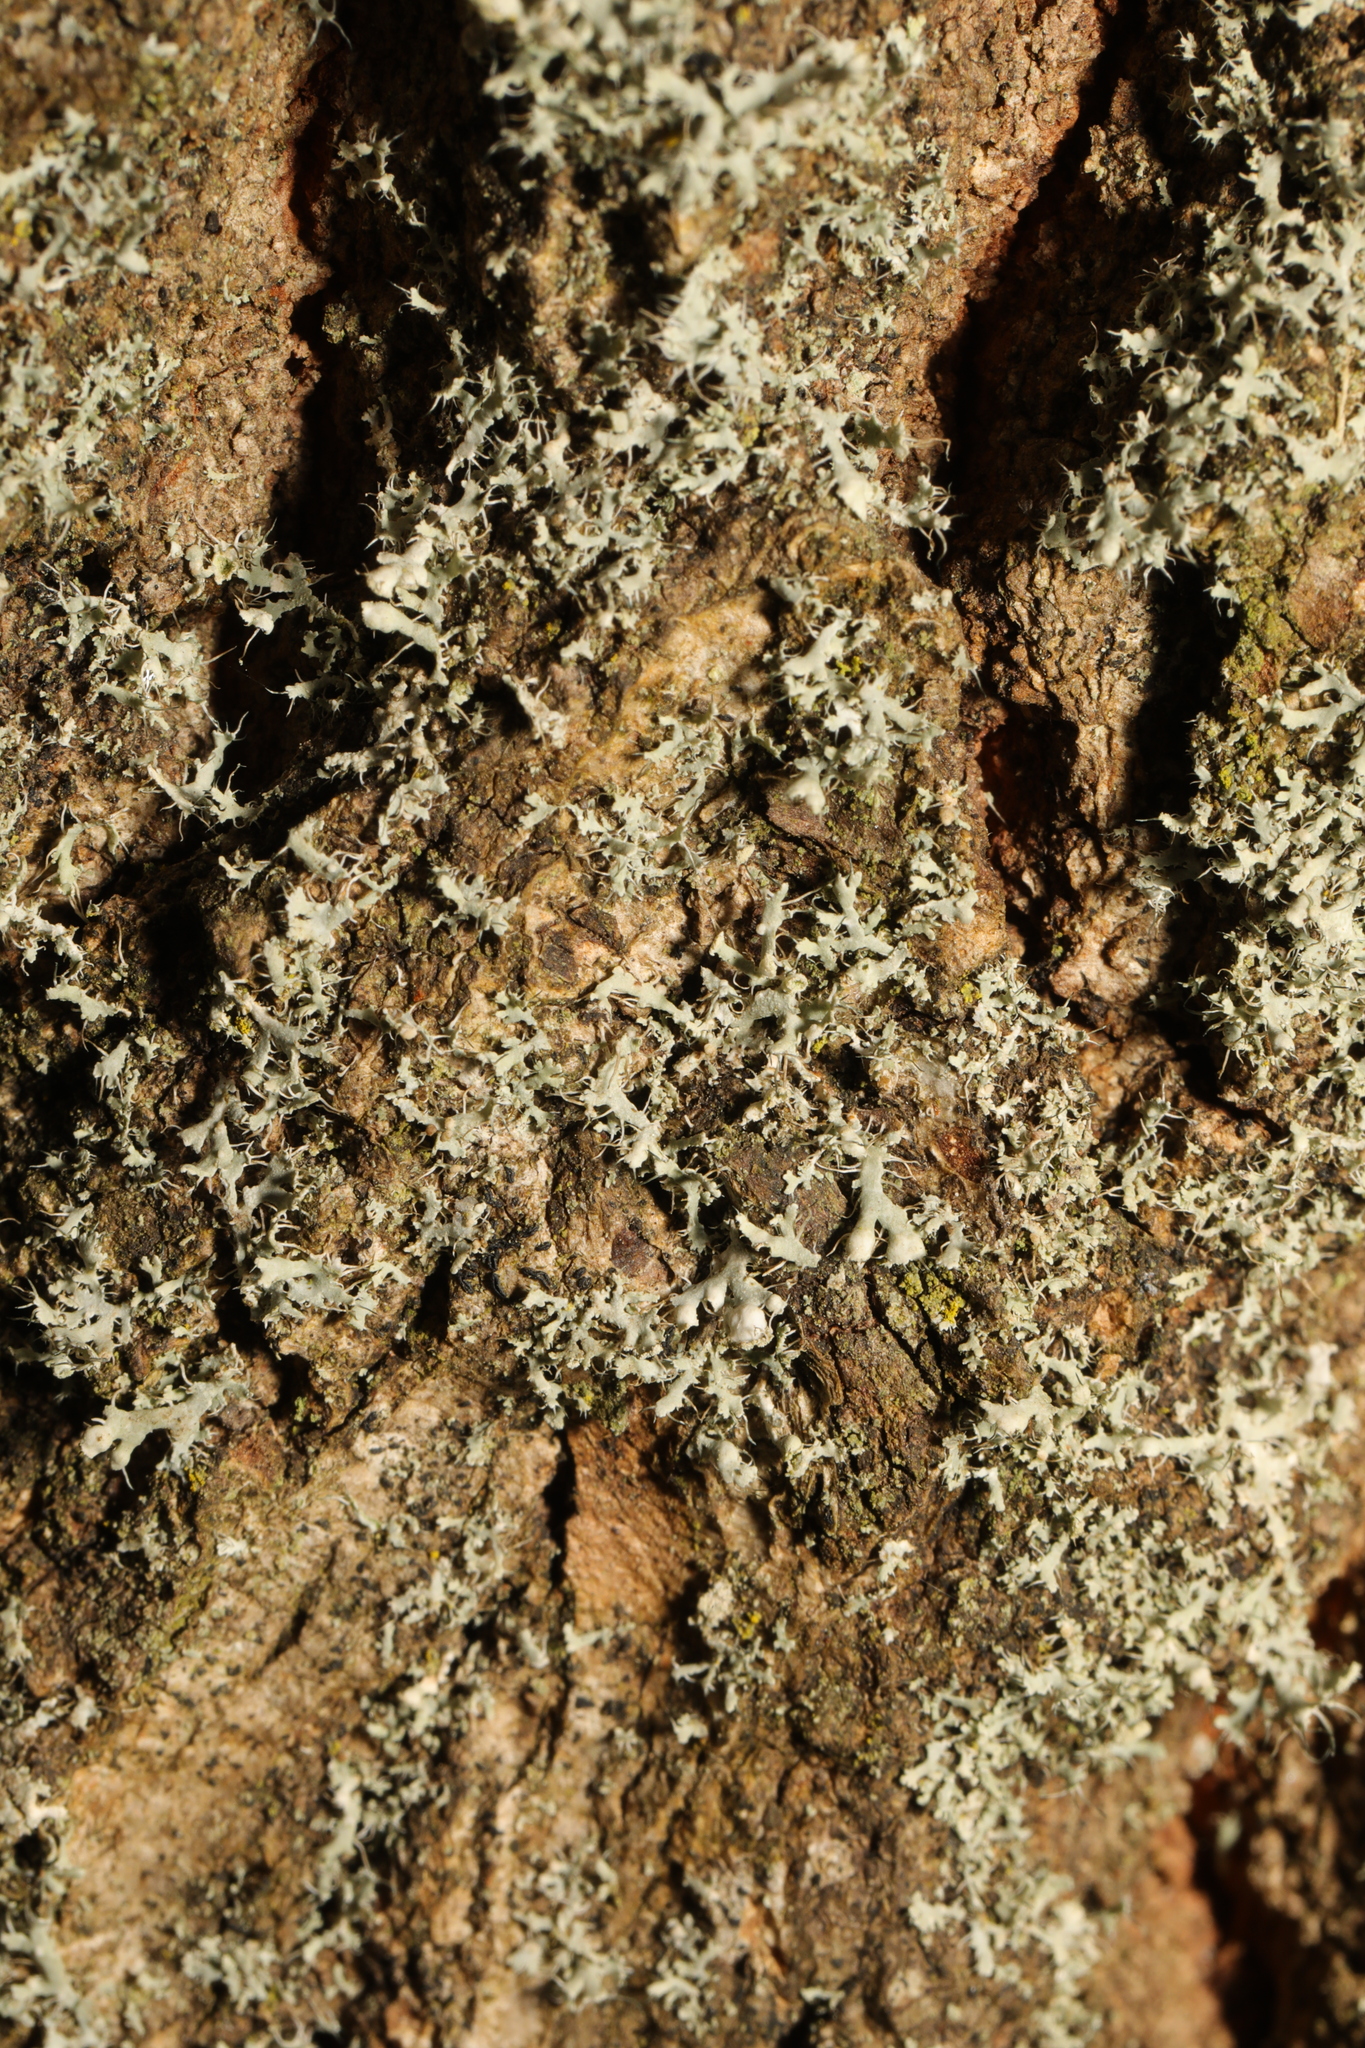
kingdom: Fungi
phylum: Ascomycota
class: Lecanoromycetes
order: Caliciales
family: Physciaceae
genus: Physcia
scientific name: Physcia adscendens
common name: Hooded rosette lichen
